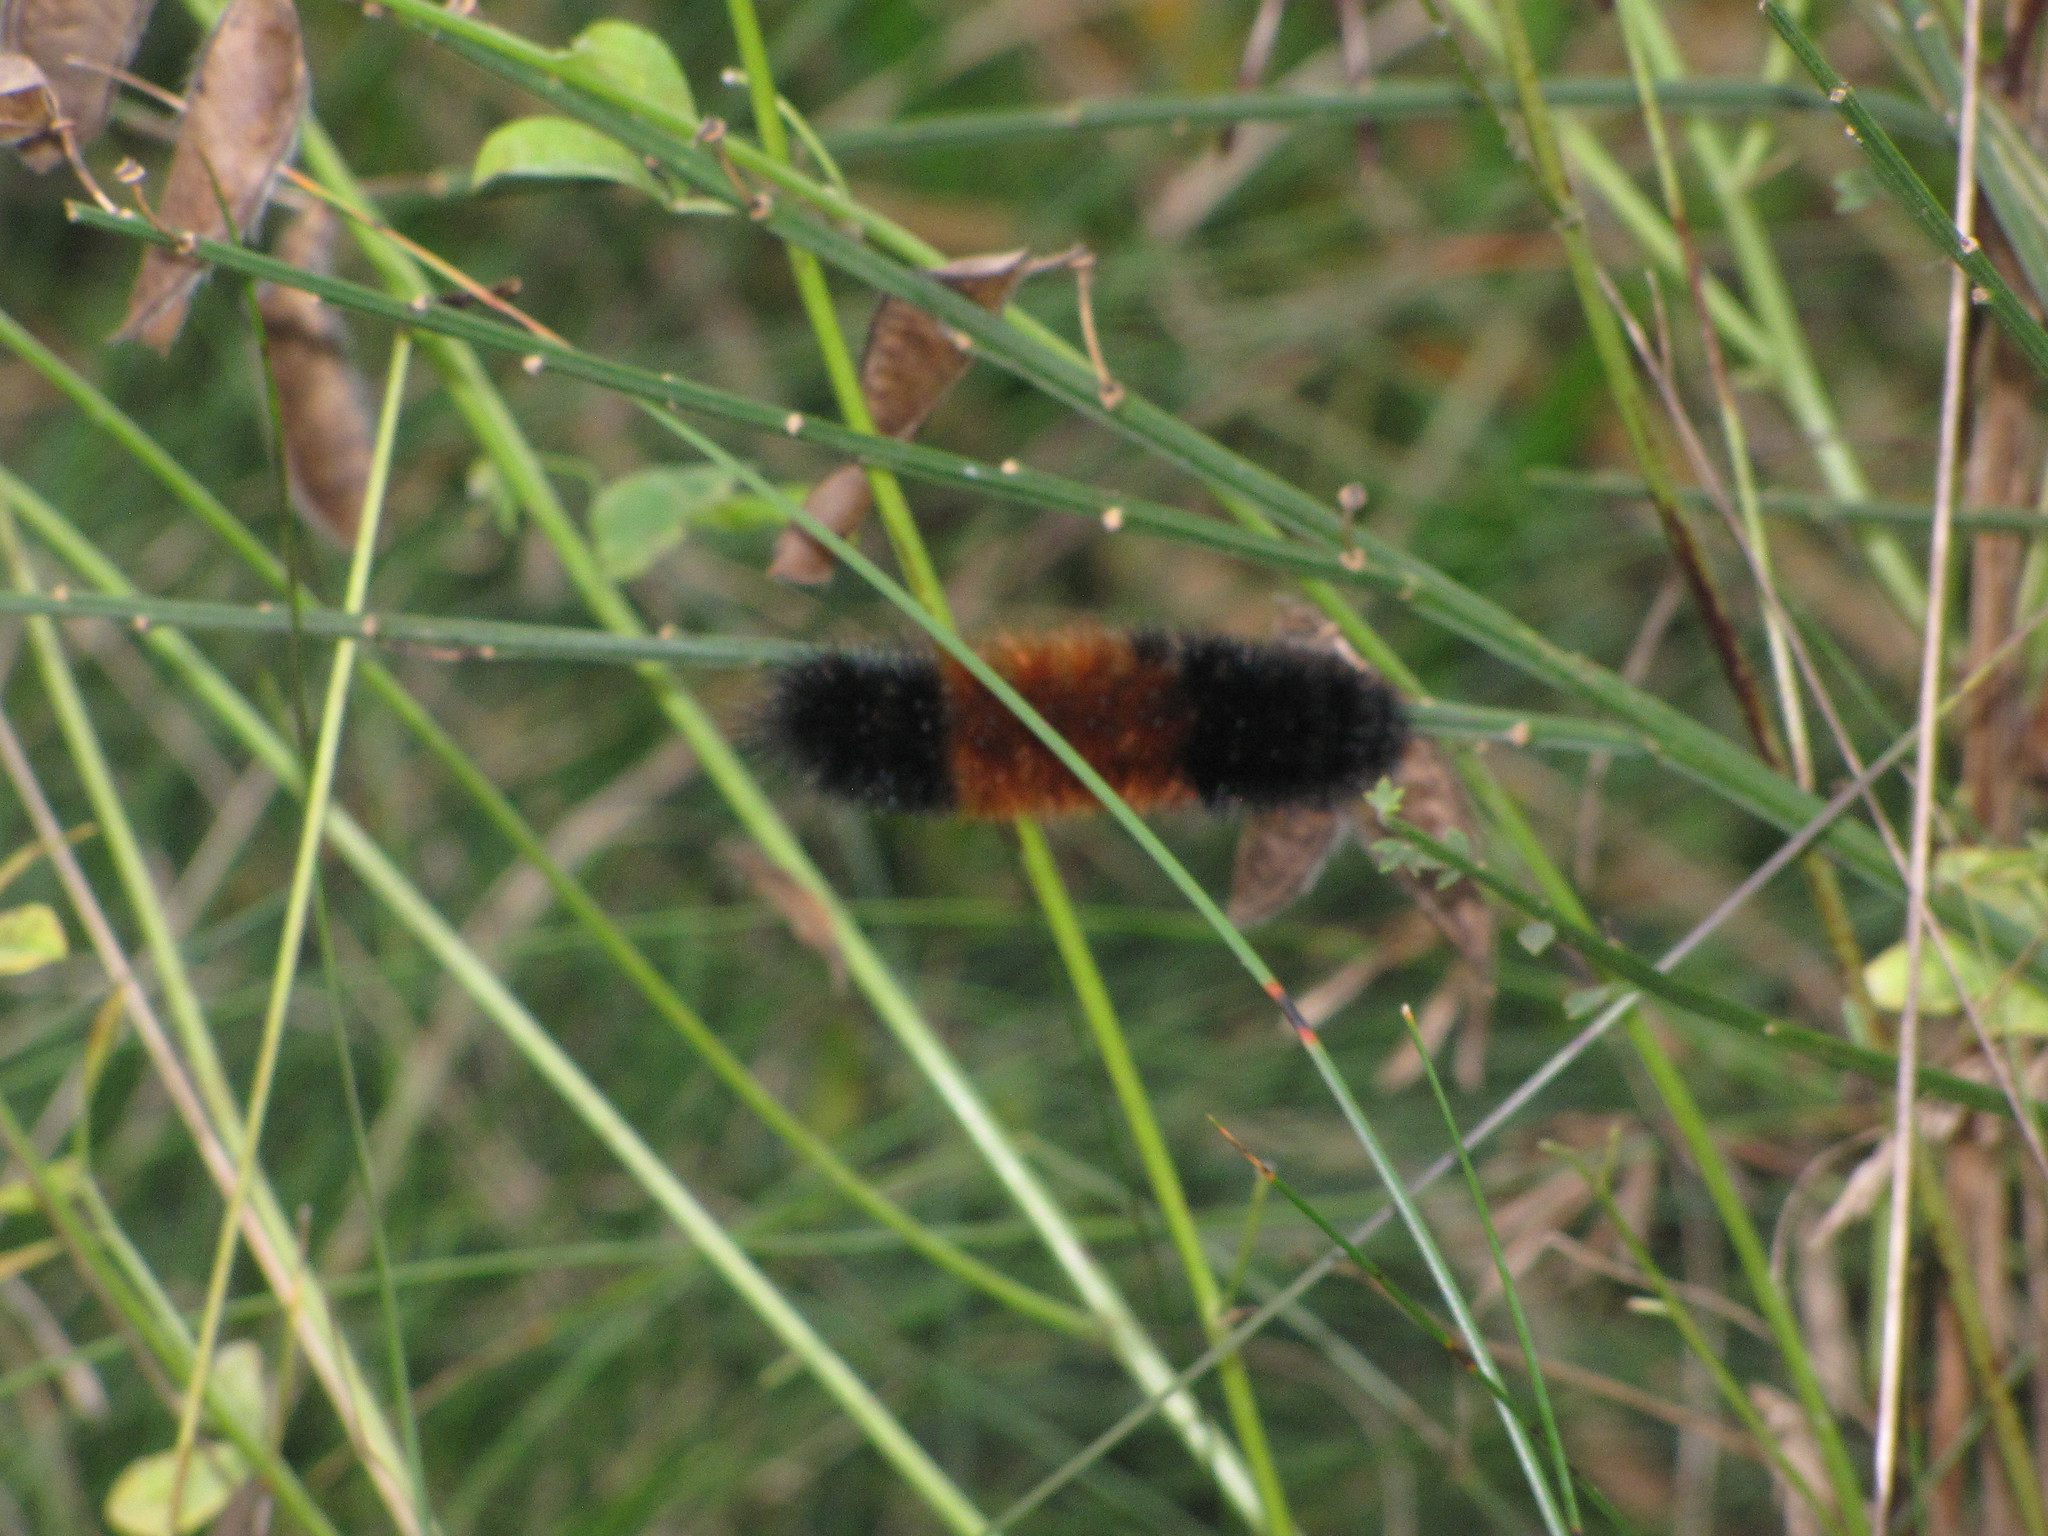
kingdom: Animalia
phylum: Arthropoda
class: Insecta
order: Lepidoptera
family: Erebidae
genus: Pyrrharctia
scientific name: Pyrrharctia isabella
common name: Isabella tiger moth
